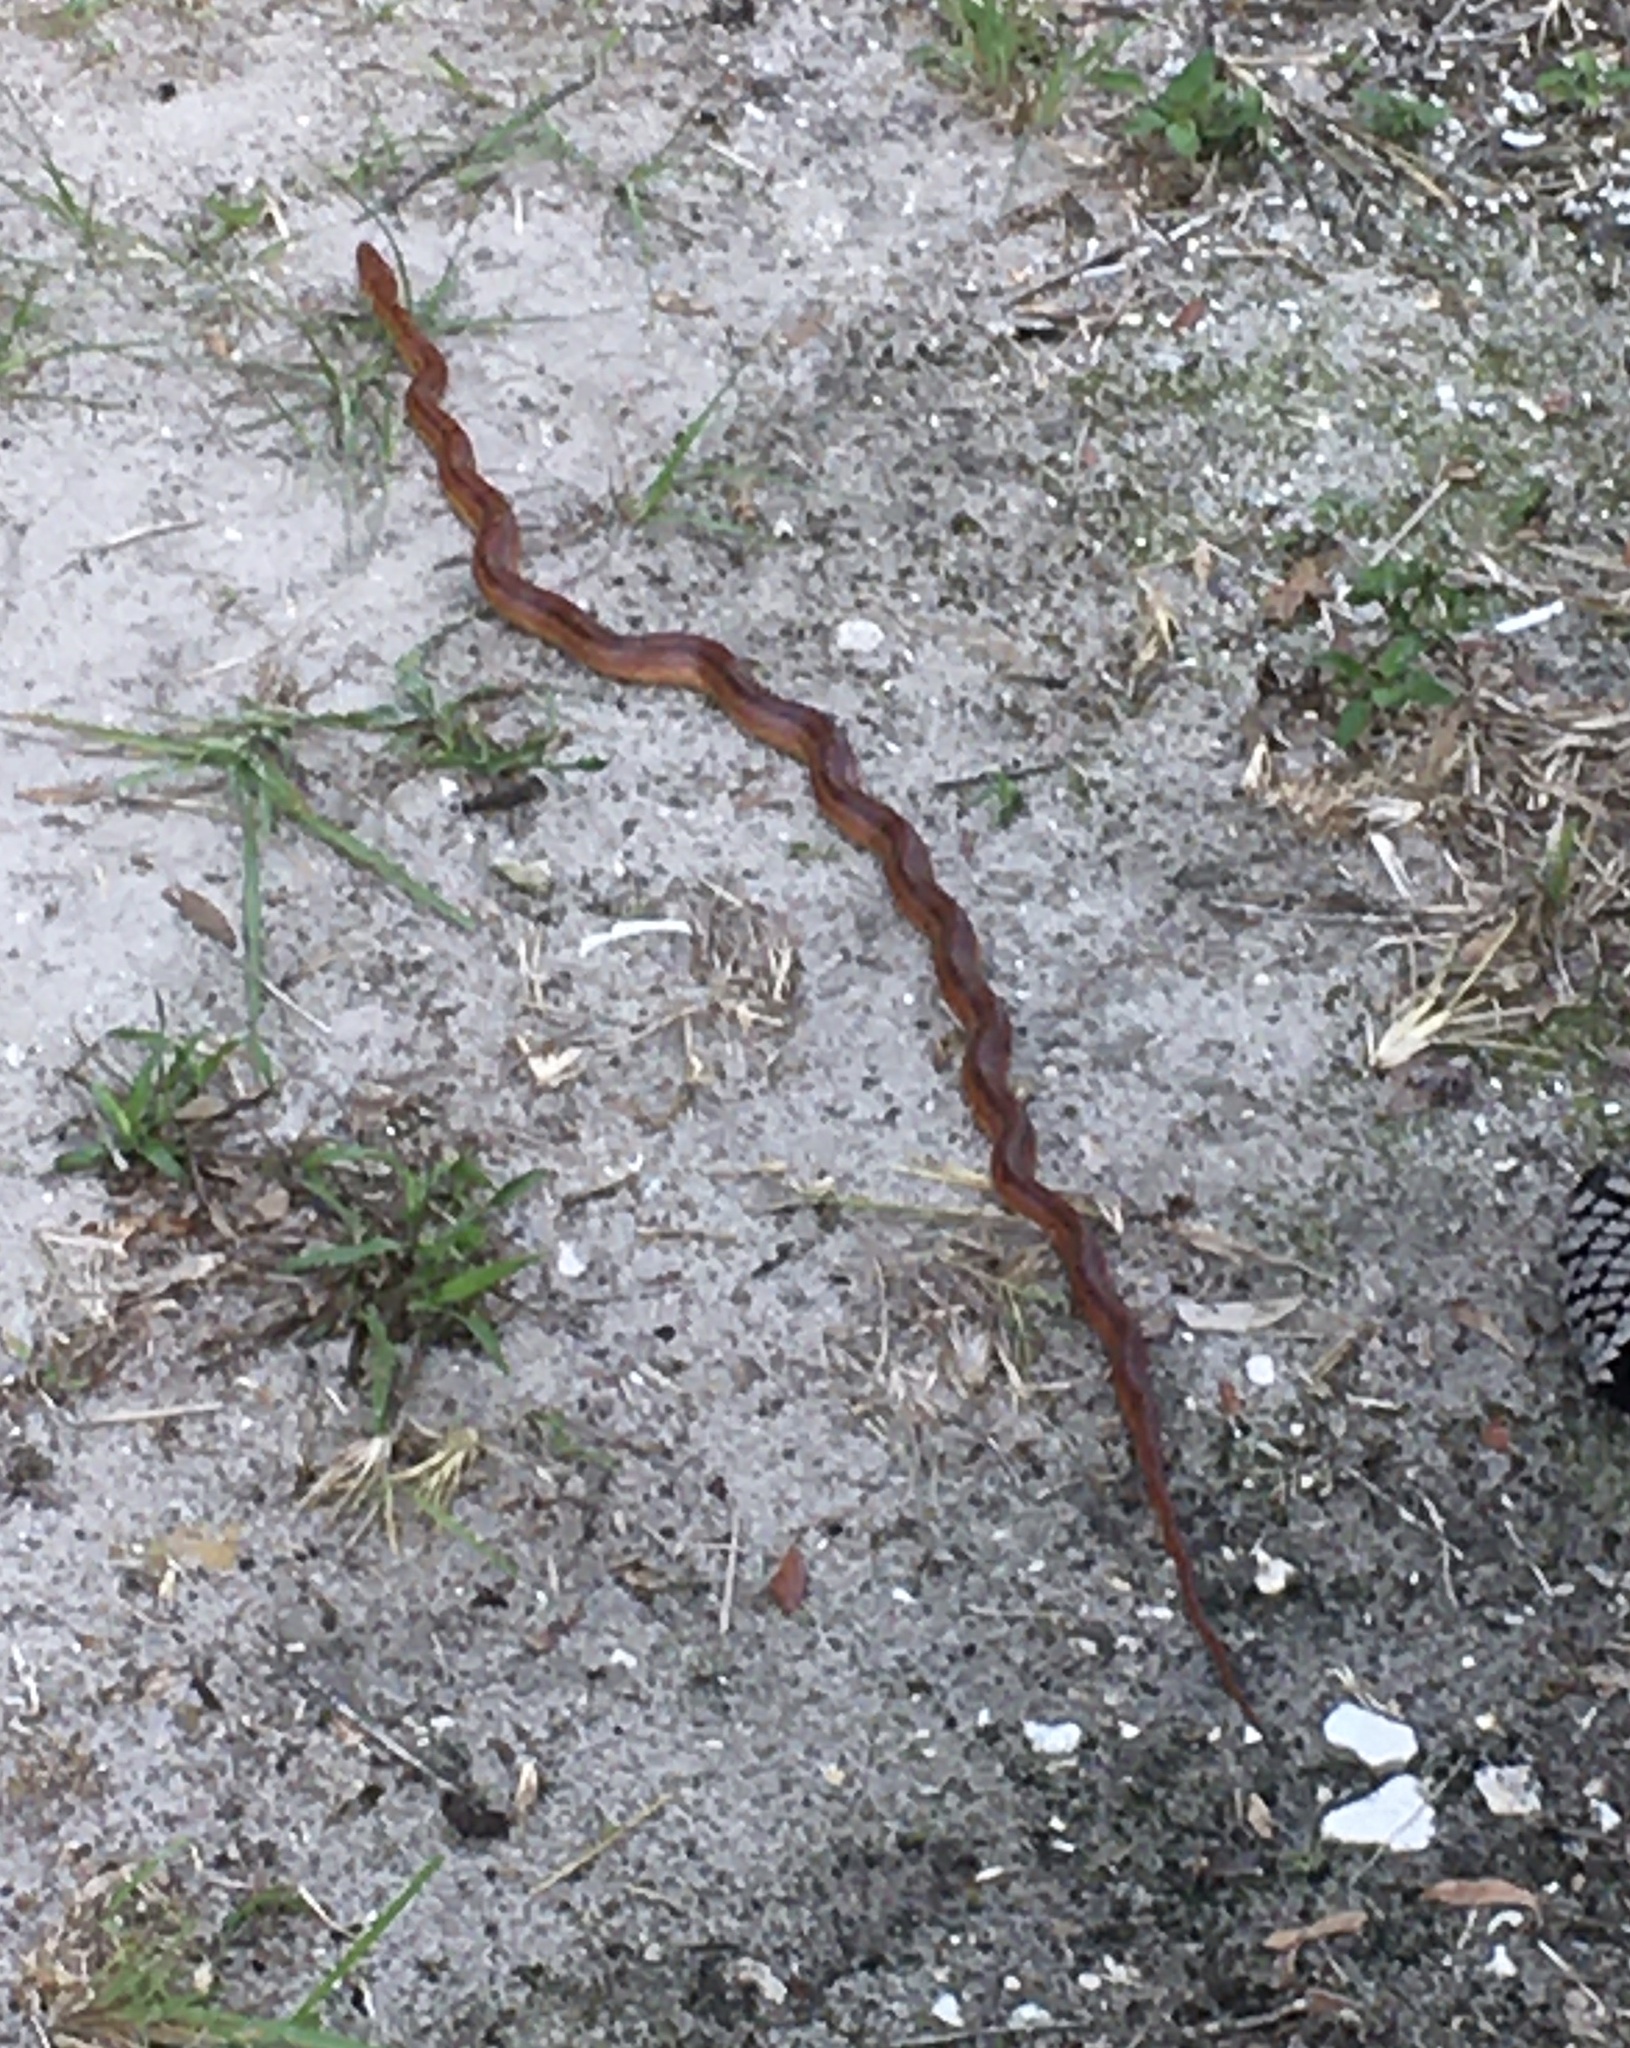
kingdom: Animalia
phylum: Chordata
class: Squamata
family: Colubridae
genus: Pantherophis
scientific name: Pantherophis guttatus
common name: Red cornsnake
